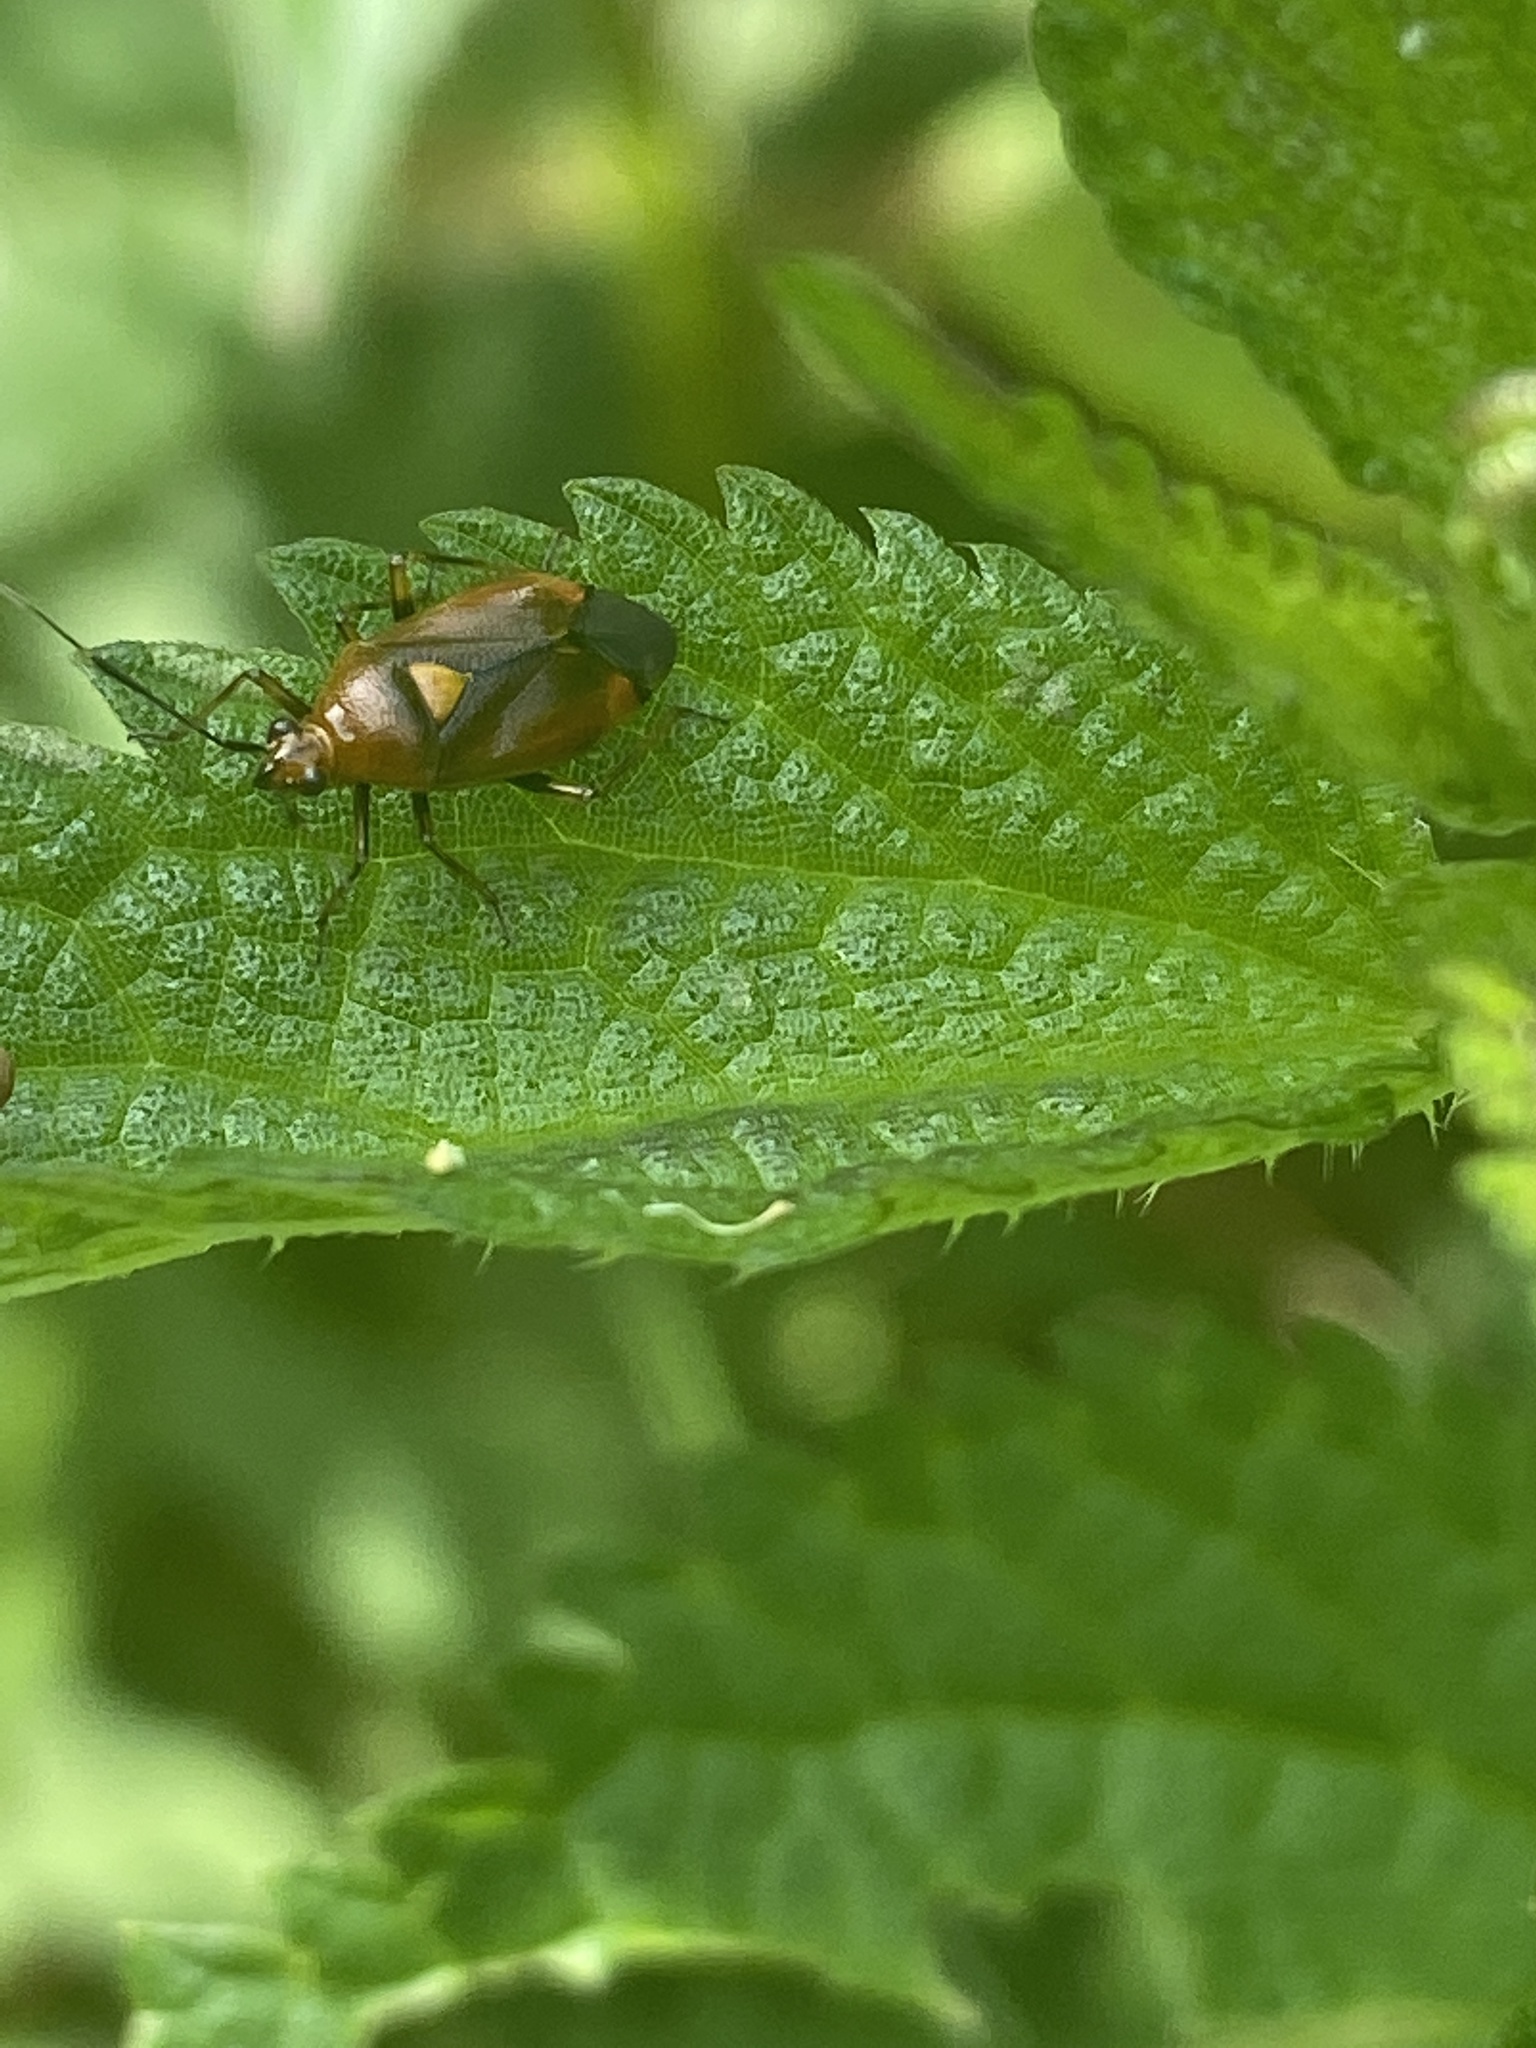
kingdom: Animalia
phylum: Arthropoda
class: Insecta
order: Hemiptera
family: Miridae
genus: Deraeocoris
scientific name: Deraeocoris ruber
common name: Plant bug
